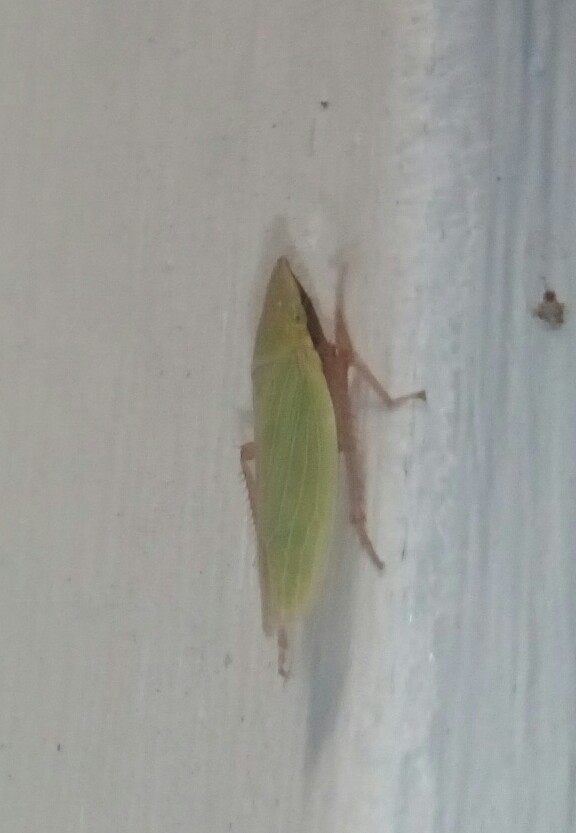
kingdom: Animalia
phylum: Arthropoda
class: Insecta
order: Hemiptera
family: Cicadellidae
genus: Draeculacephala
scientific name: Draeculacephala antica
